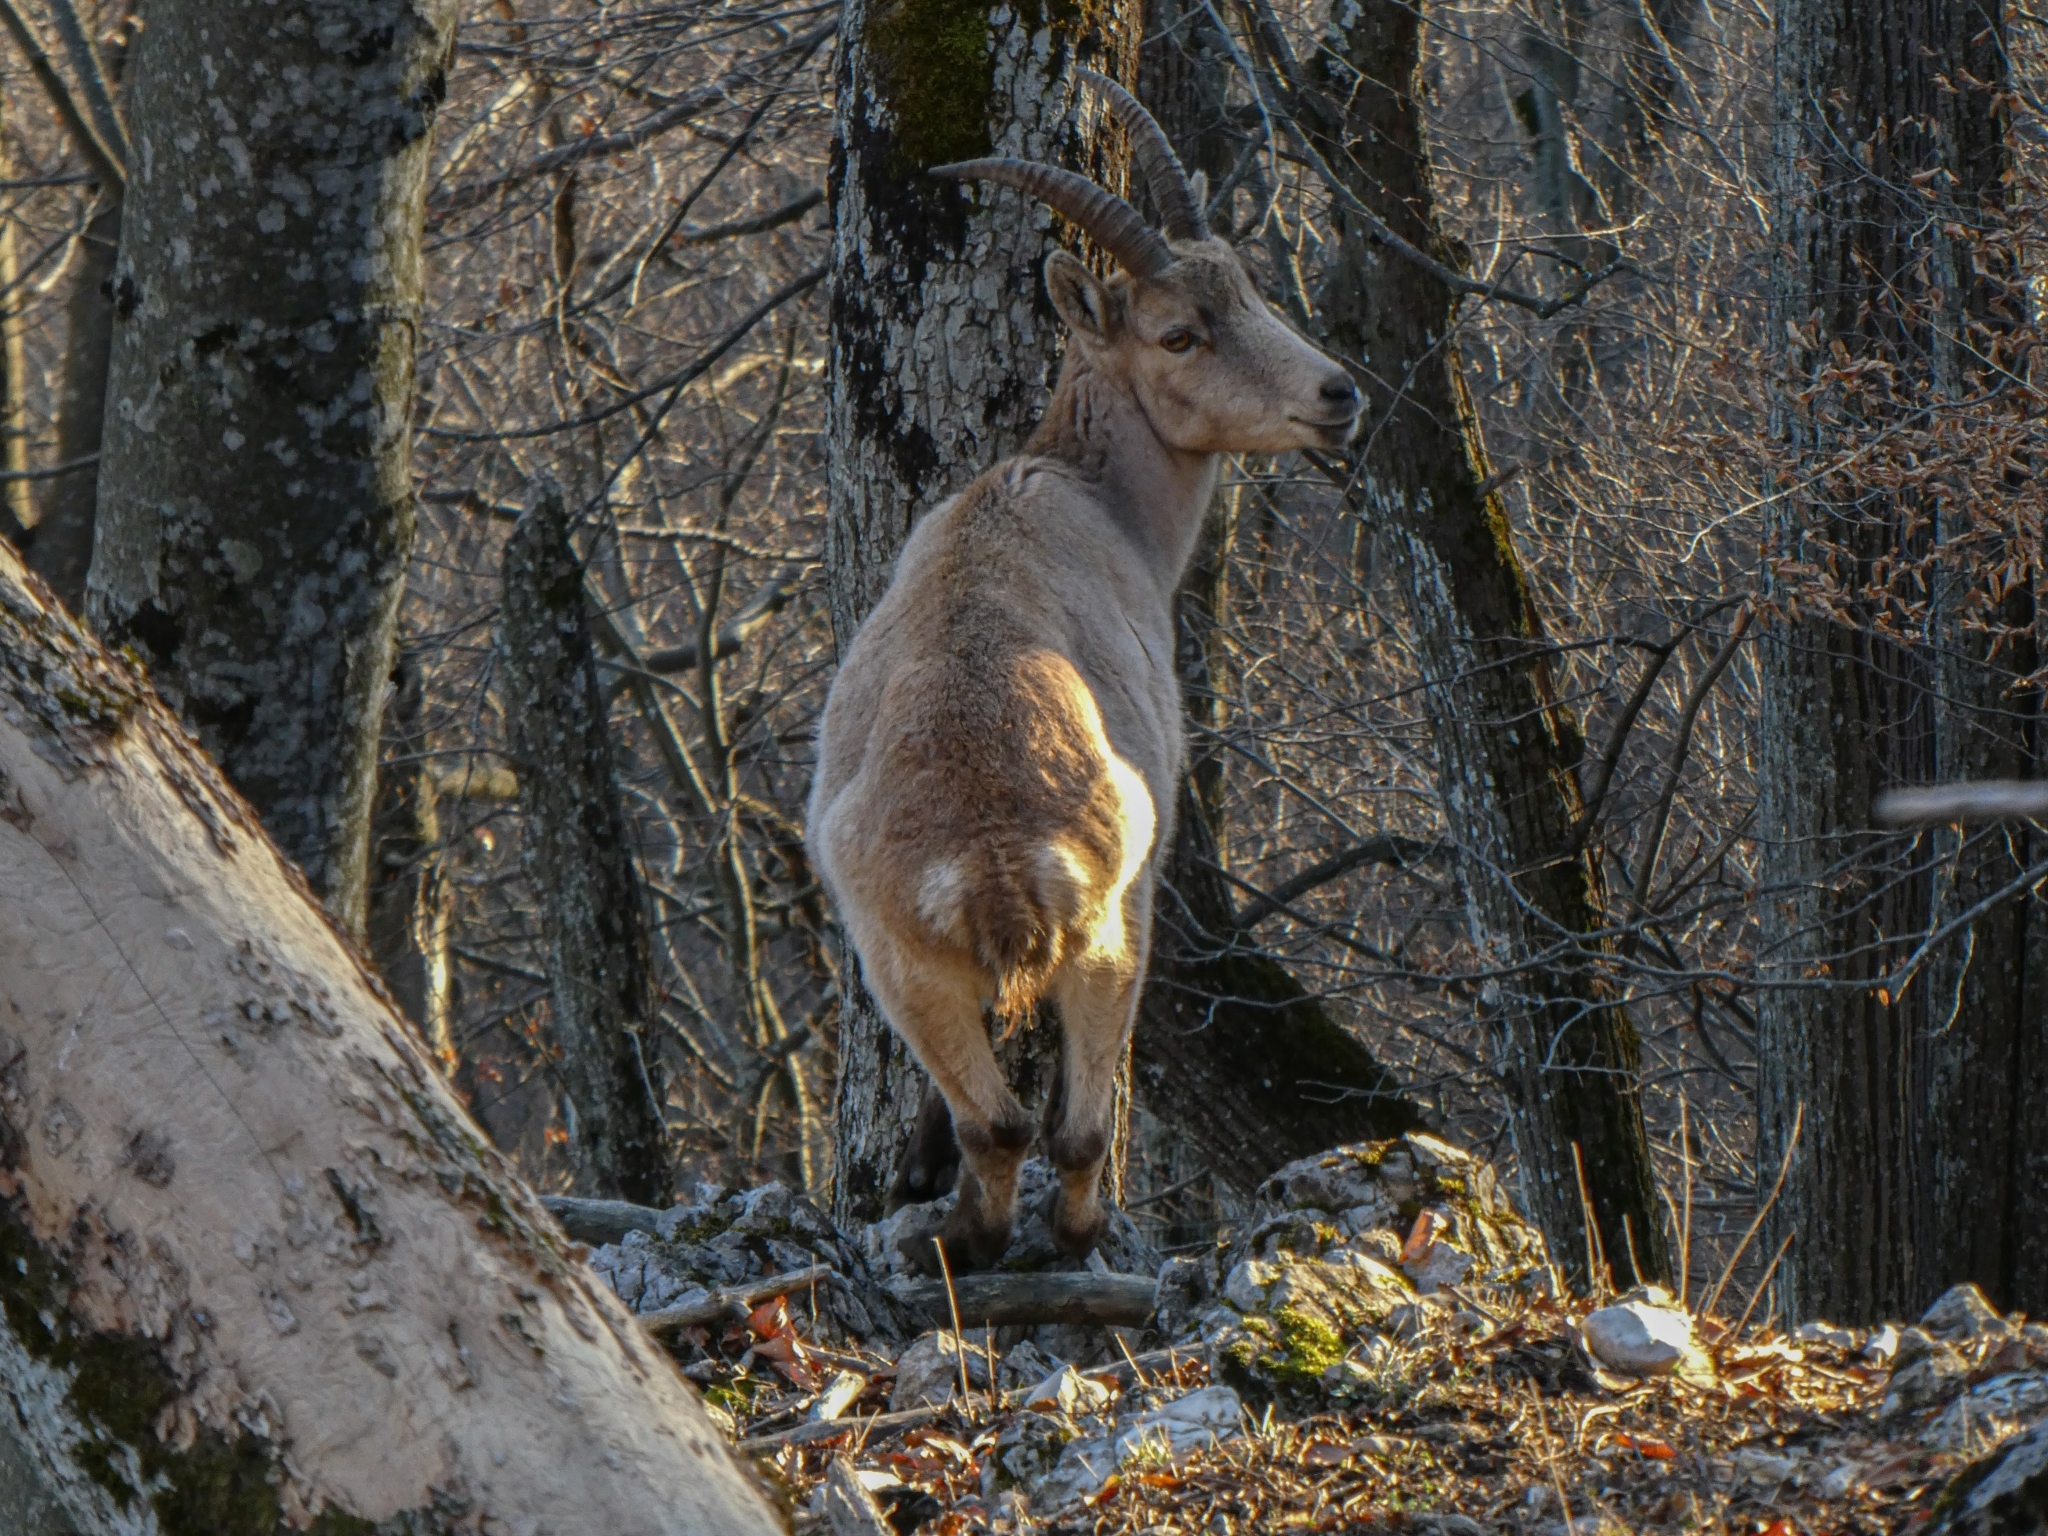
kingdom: Animalia
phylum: Chordata
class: Mammalia
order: Artiodactyla
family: Bovidae
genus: Capra
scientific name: Capra ibex
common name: Alpine ibex
